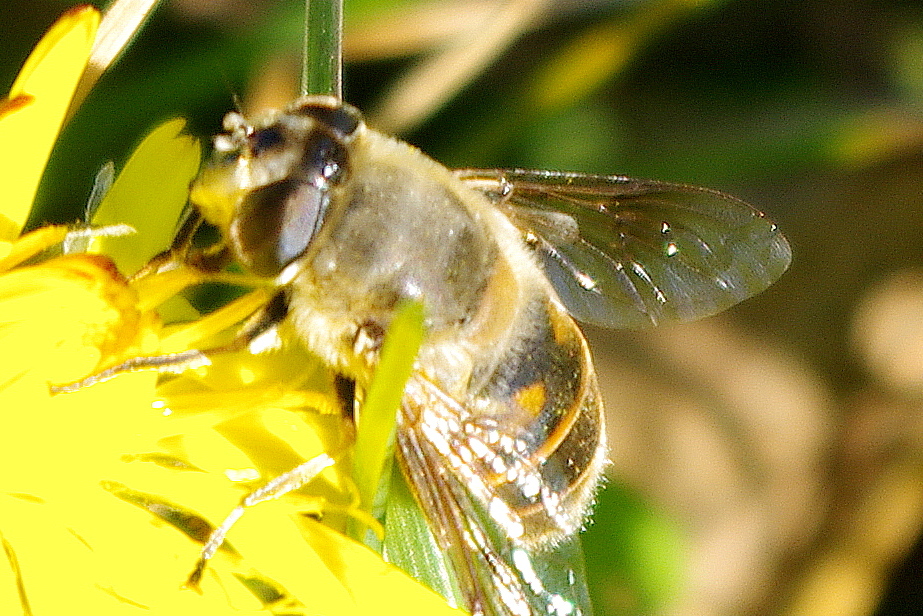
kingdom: Animalia
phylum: Arthropoda
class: Insecta
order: Diptera
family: Syrphidae
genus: Eristalis
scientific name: Eristalis tenax
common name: Drone fly
